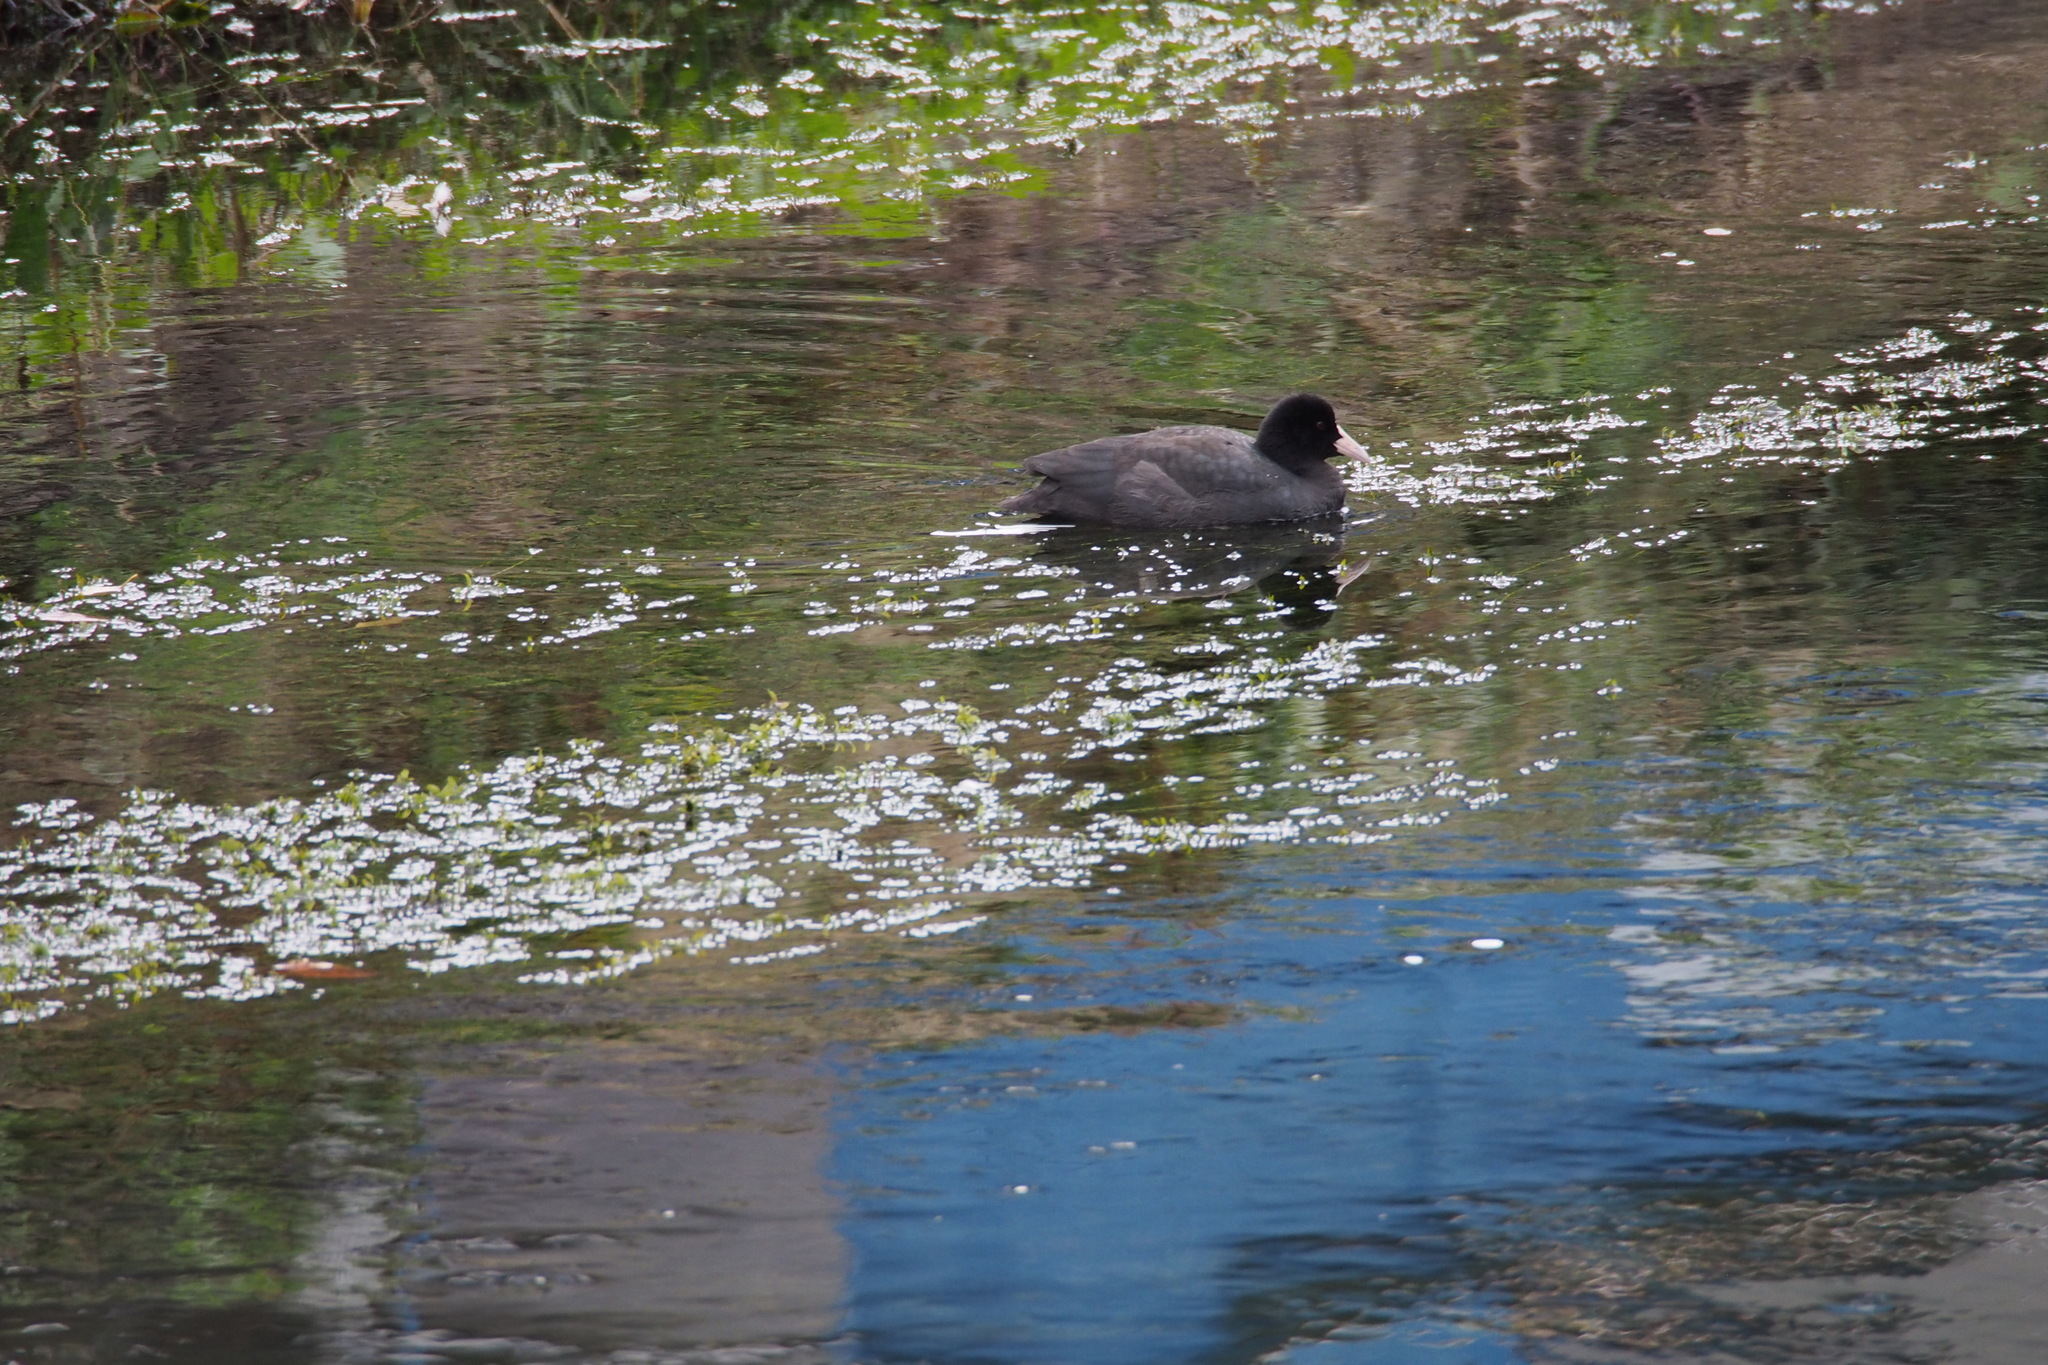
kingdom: Animalia
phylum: Chordata
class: Aves
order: Gruiformes
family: Rallidae
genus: Fulica
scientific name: Fulica atra
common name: Eurasian coot
